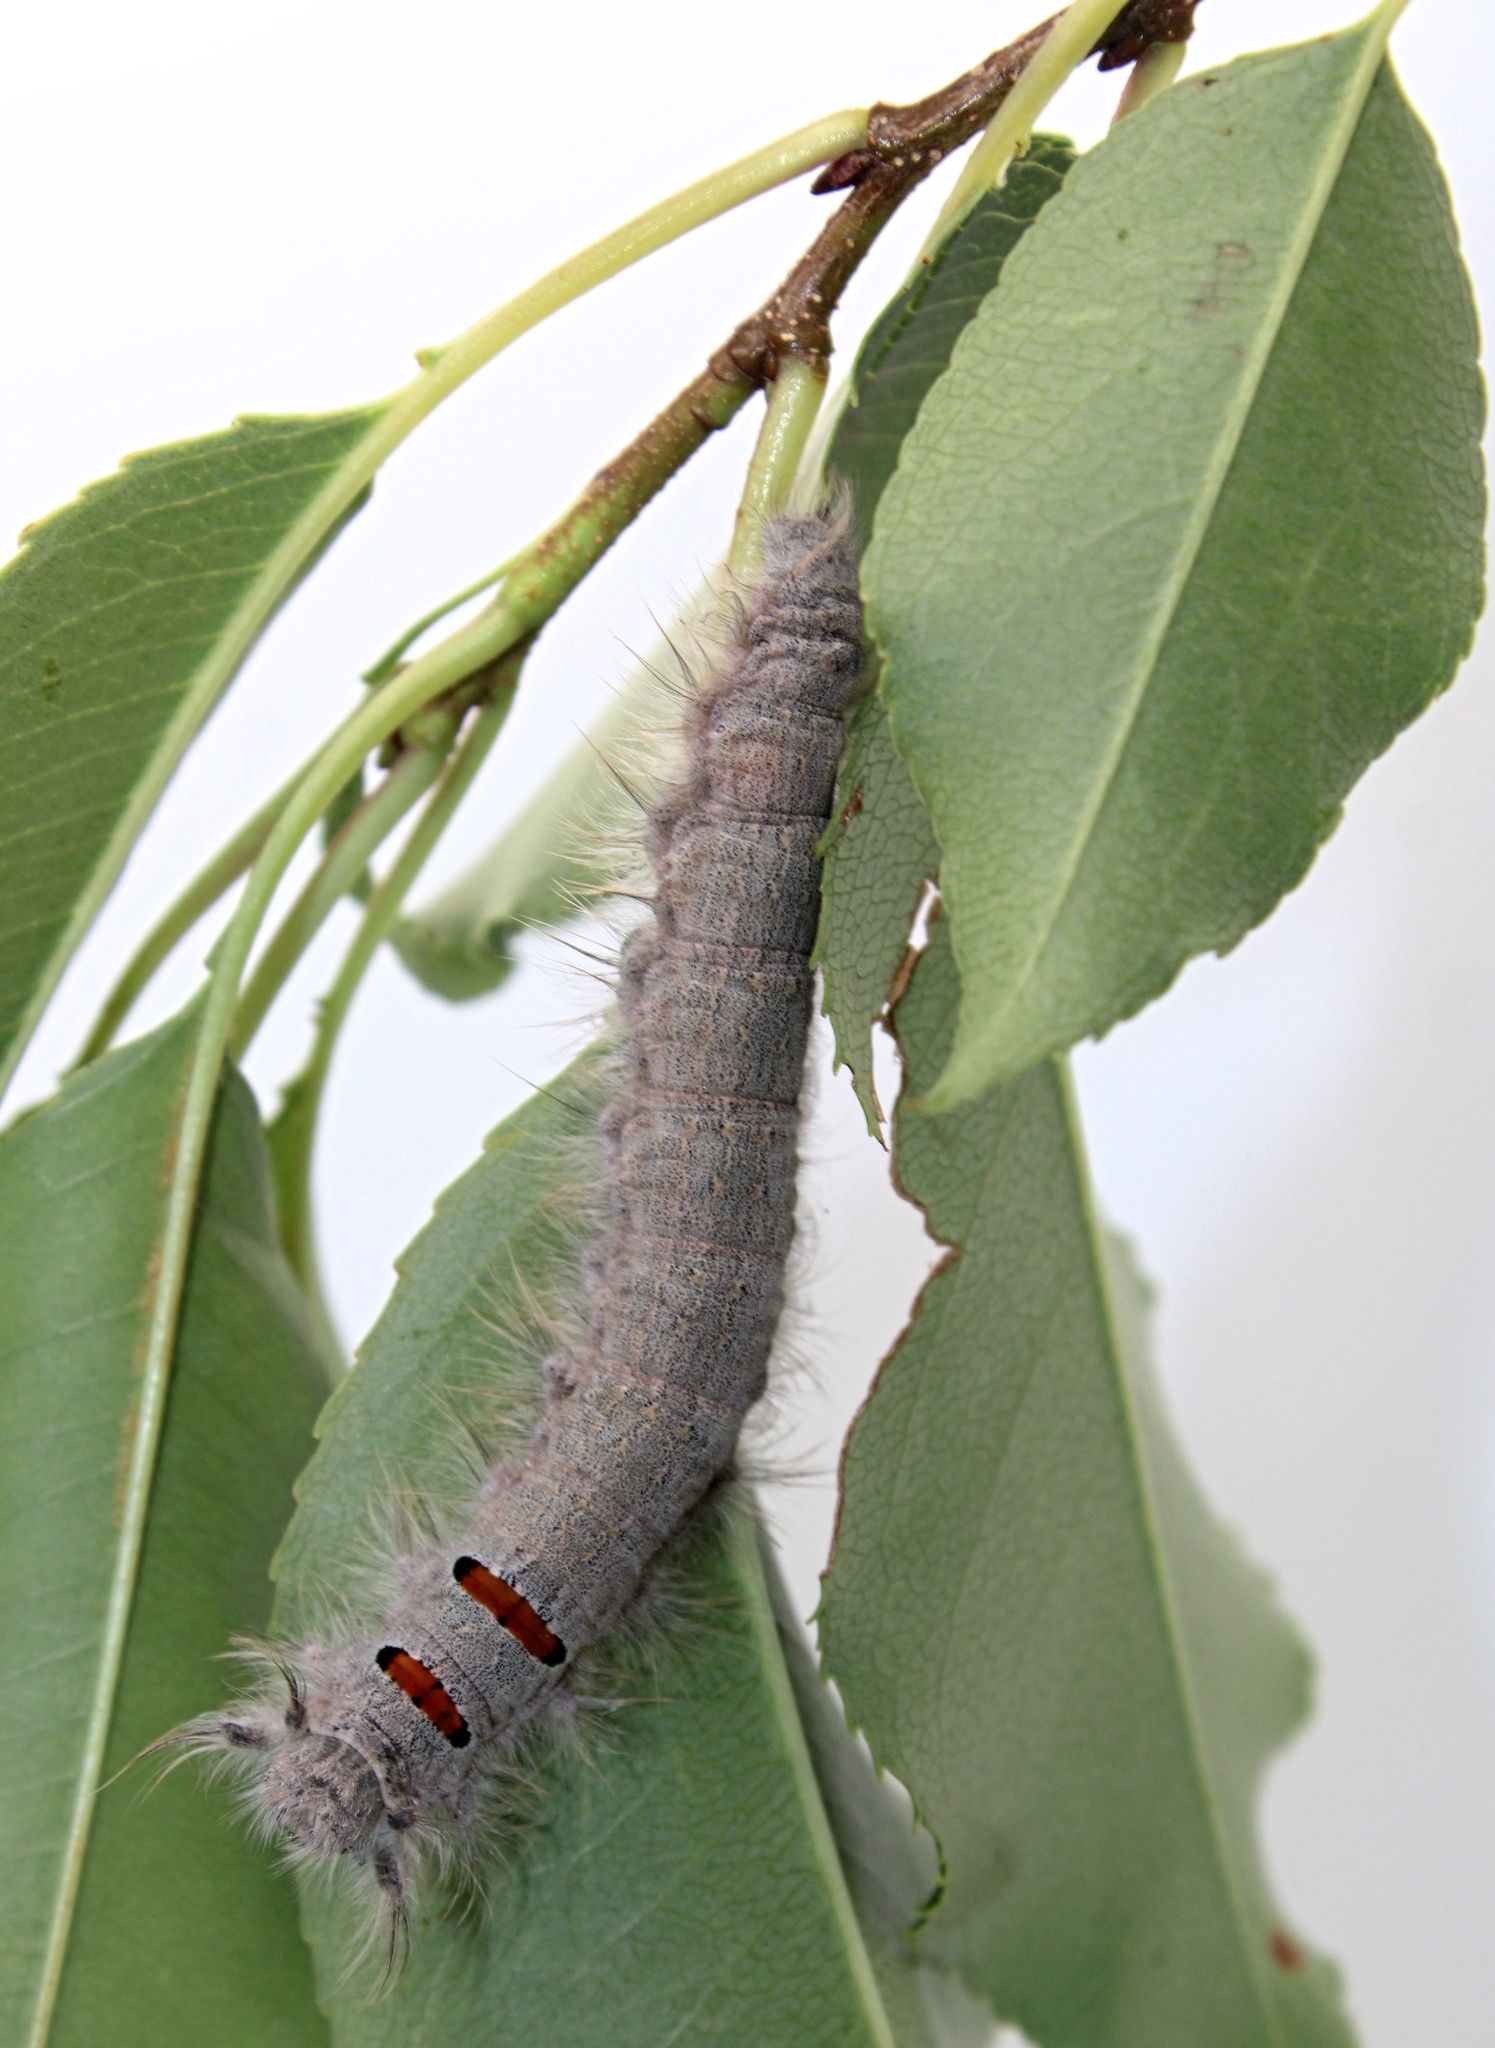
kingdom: Animalia
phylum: Arthropoda
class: Insecta
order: Lepidoptera
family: Lasiocampidae
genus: Phyllodesma
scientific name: Phyllodesma americana
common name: American lappet moth
